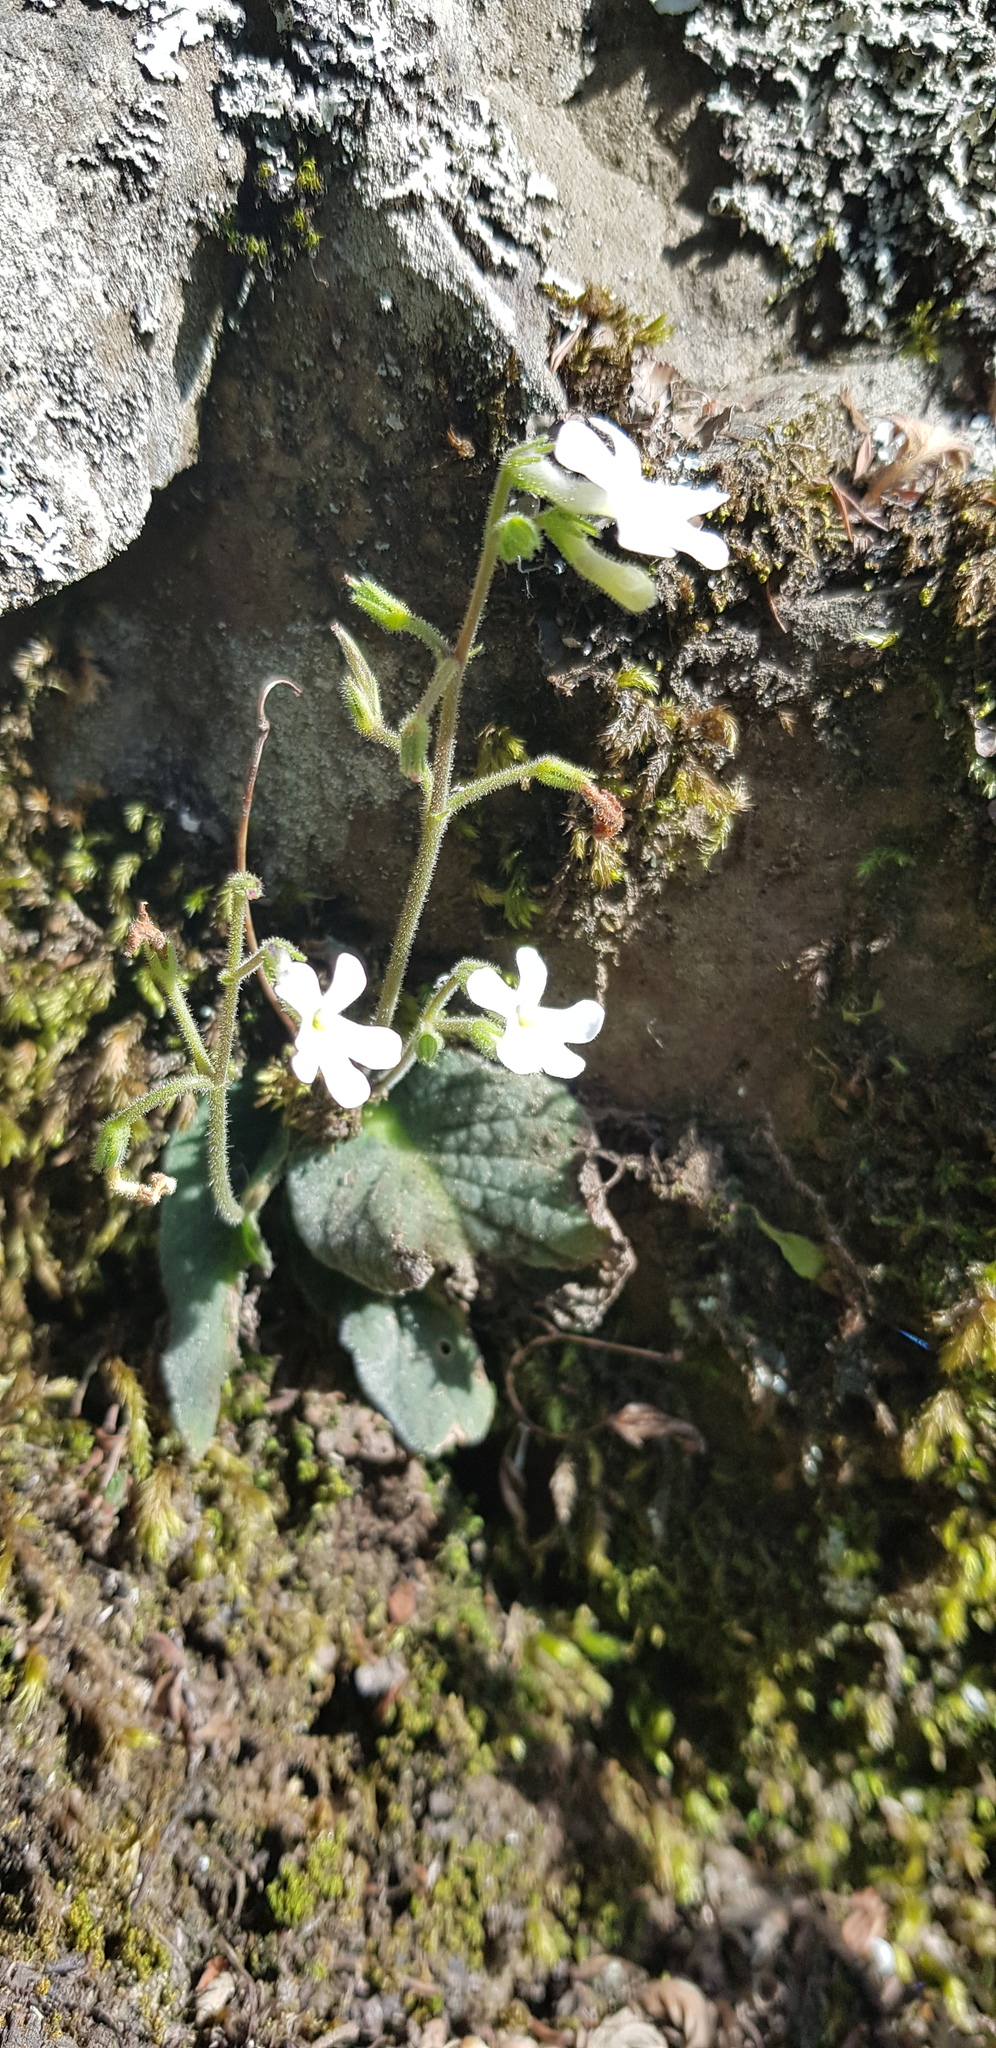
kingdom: Plantae
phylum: Tracheophyta
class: Magnoliopsida
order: Lamiales
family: Gesneriaceae
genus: Streptocarpus
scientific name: Streptocarpus pentherianus
